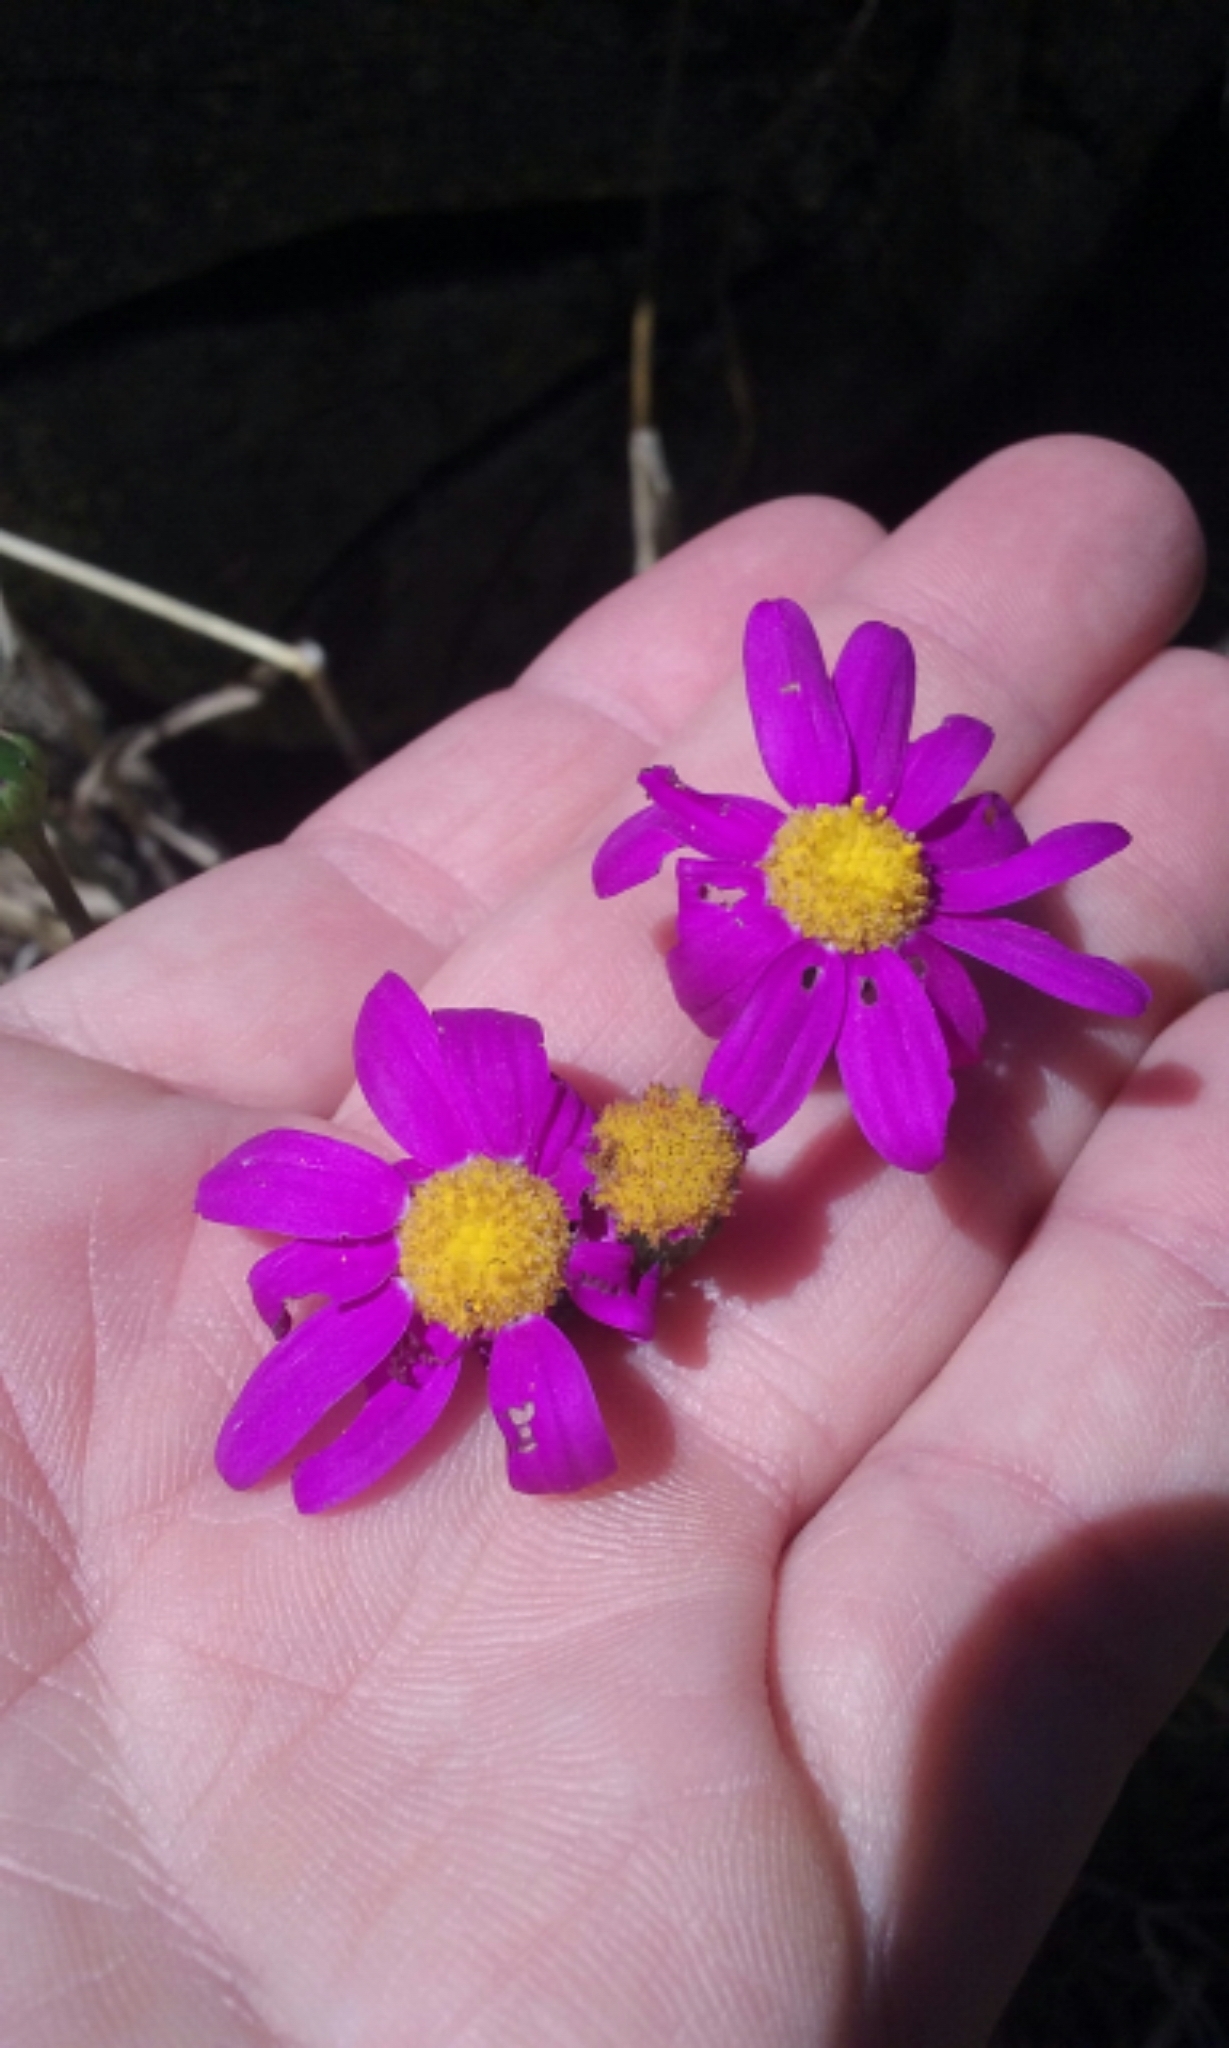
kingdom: Plantae
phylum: Tracheophyta
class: Magnoliopsida
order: Asterales
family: Asteraceae
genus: Senecio
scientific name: Senecio elegans
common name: Purple groundsel
